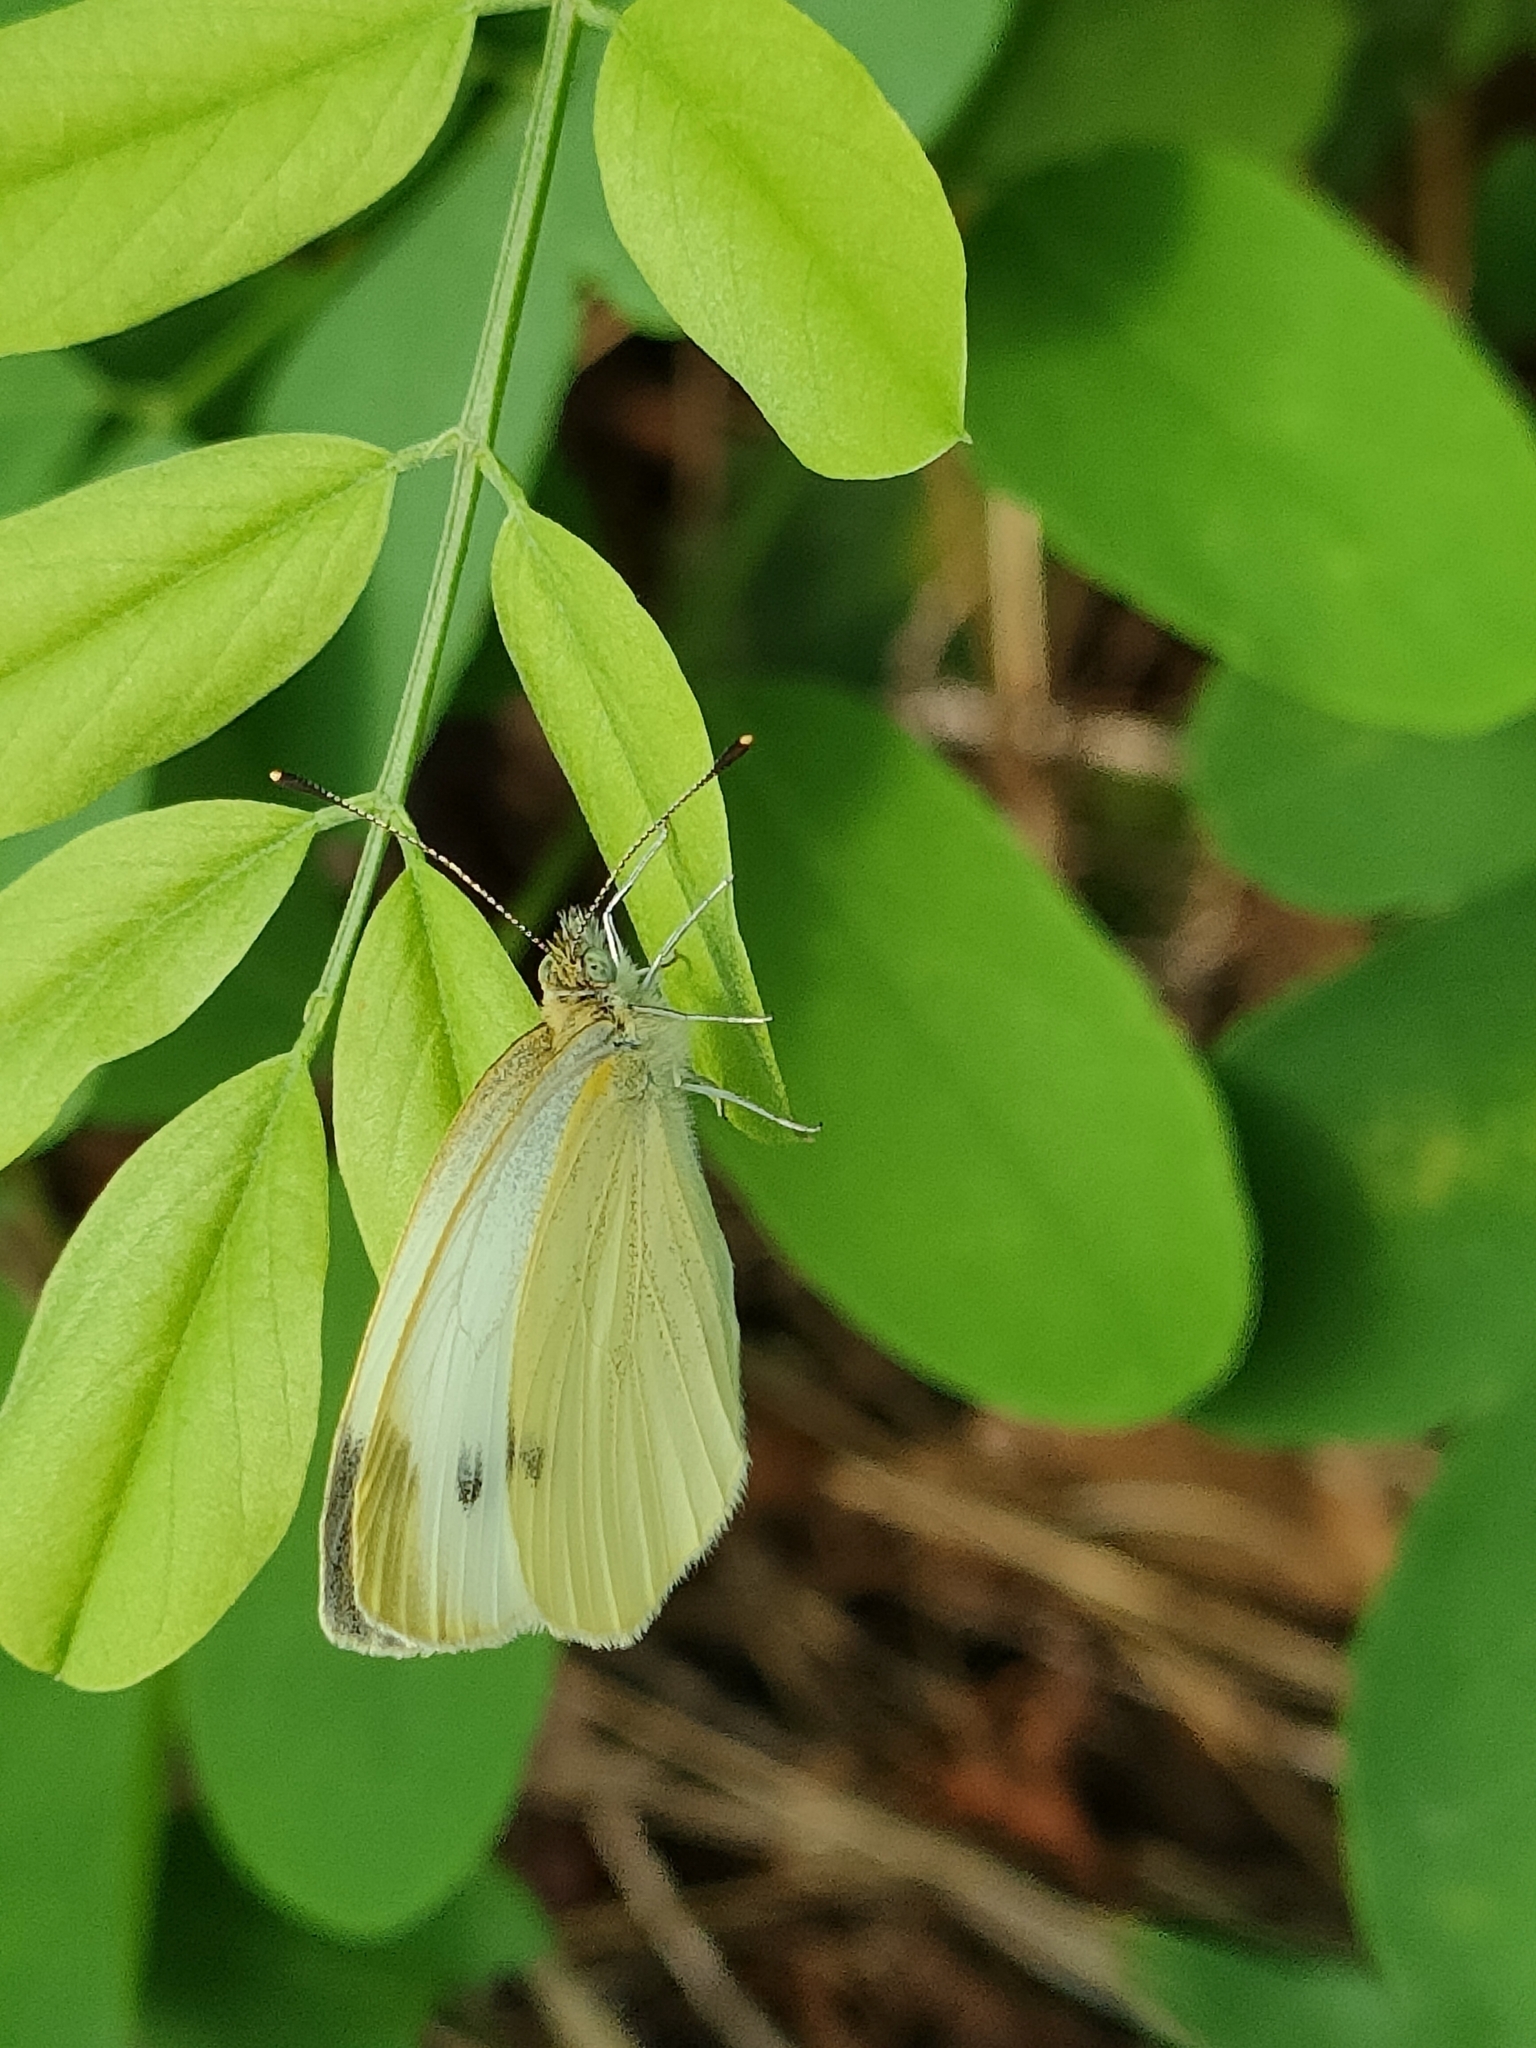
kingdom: Animalia
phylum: Arthropoda
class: Insecta
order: Lepidoptera
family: Pieridae
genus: Pieris
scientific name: Pieris rapae
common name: Small white
